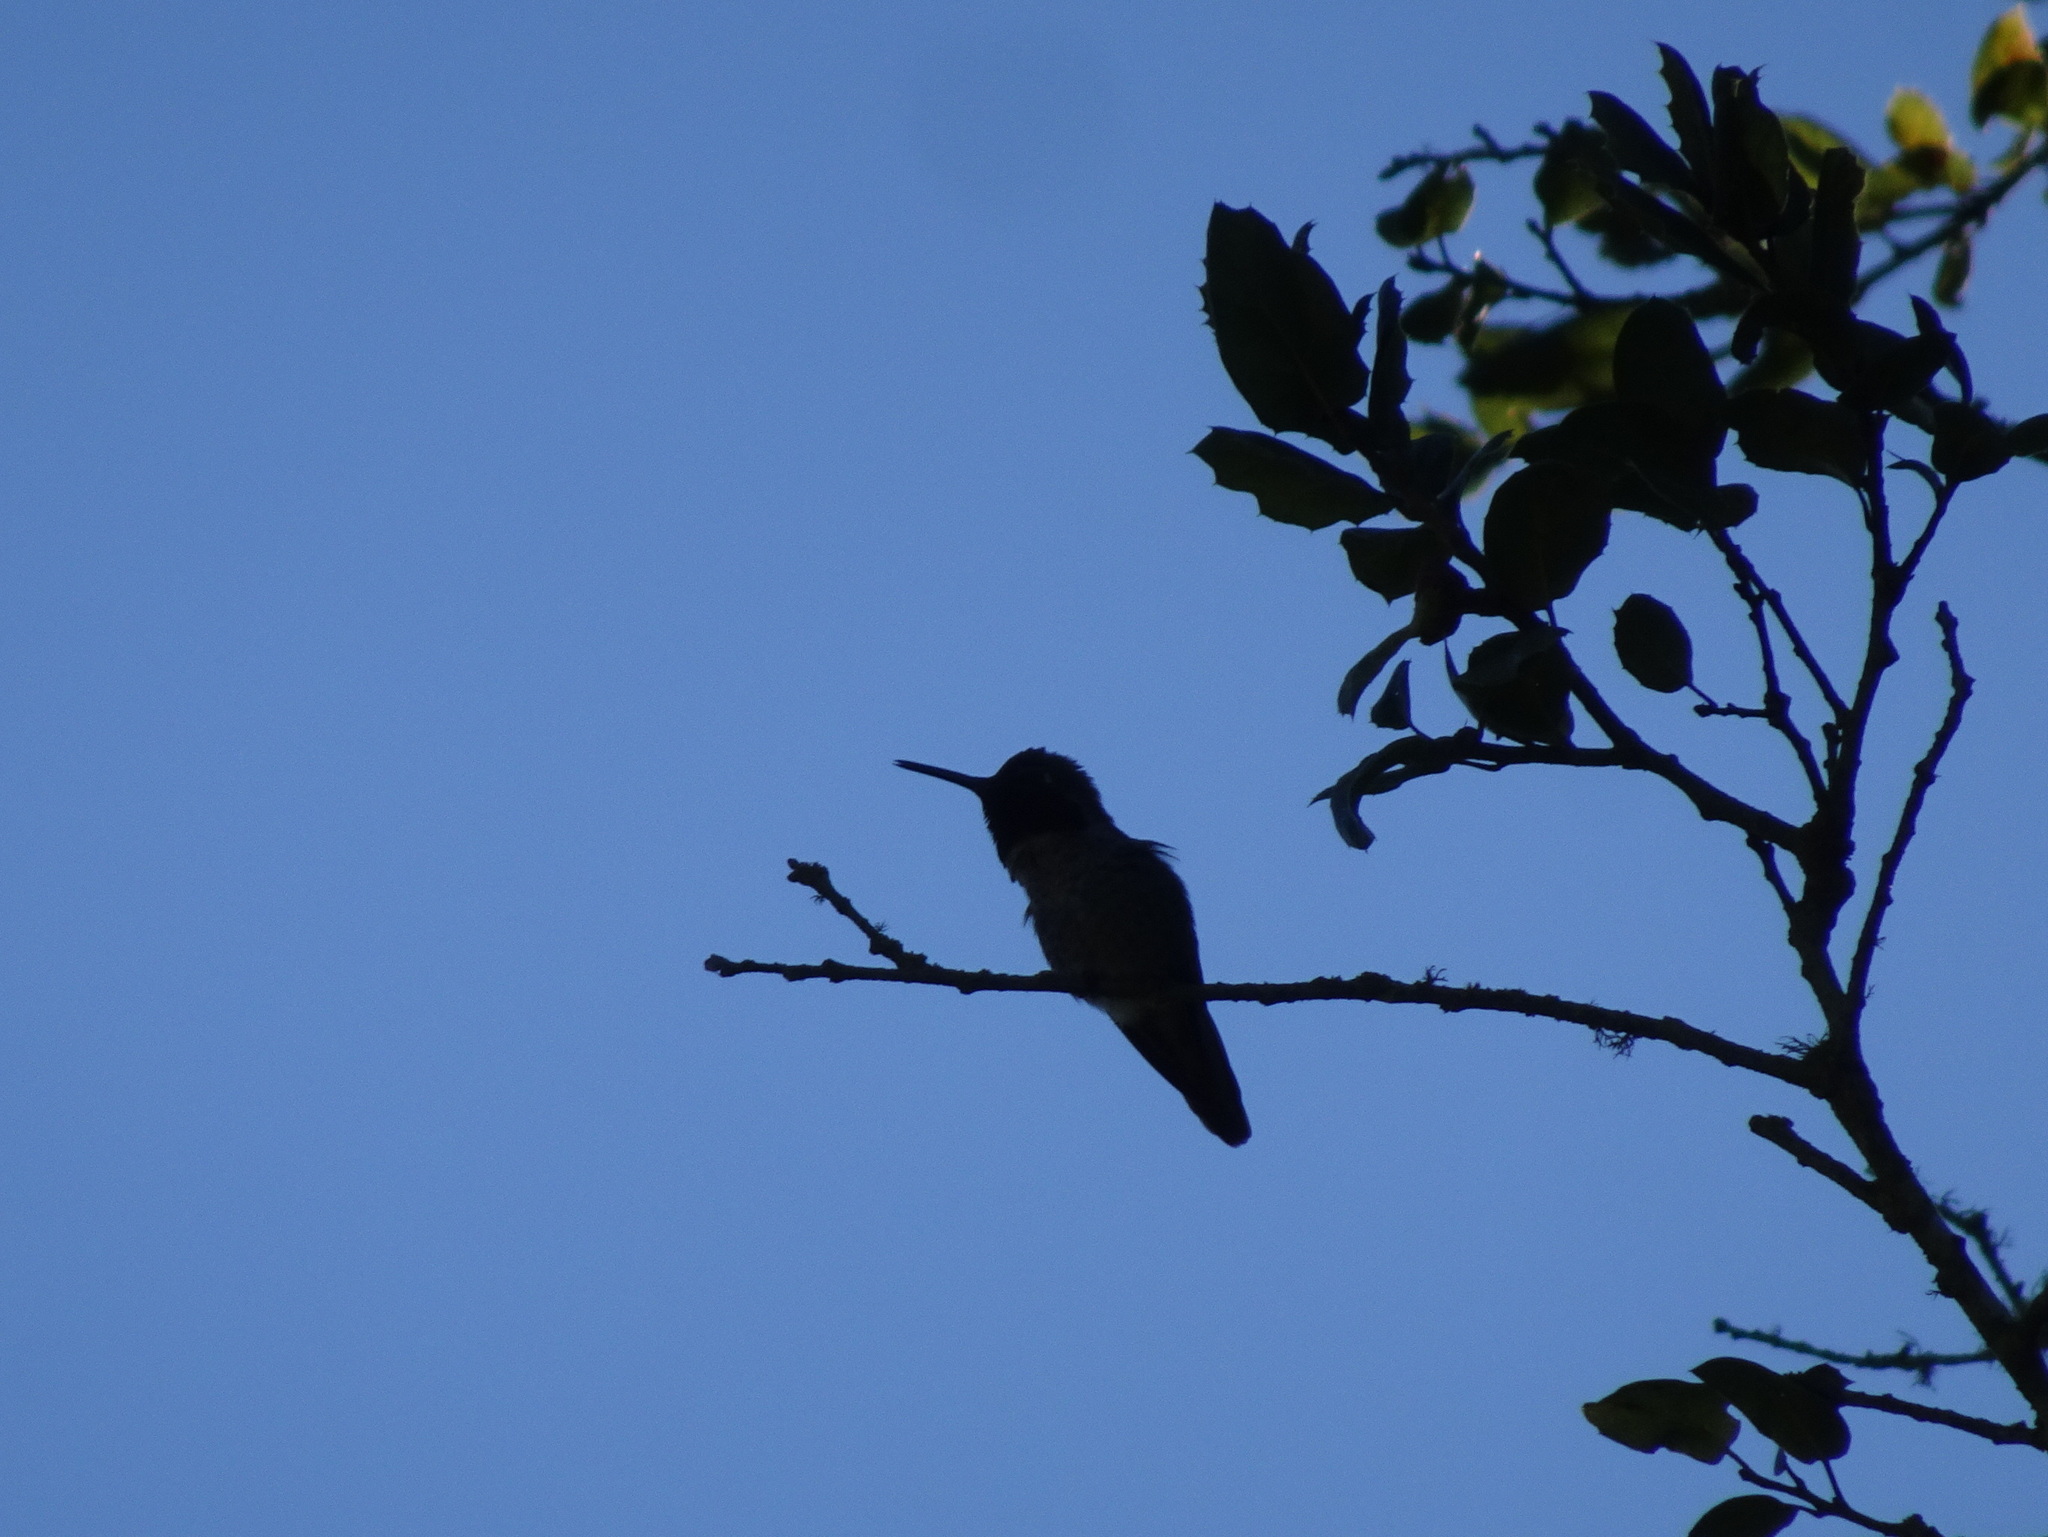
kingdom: Animalia
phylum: Chordata
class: Aves
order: Apodiformes
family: Trochilidae
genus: Calypte
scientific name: Calypte anna
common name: Anna's hummingbird
